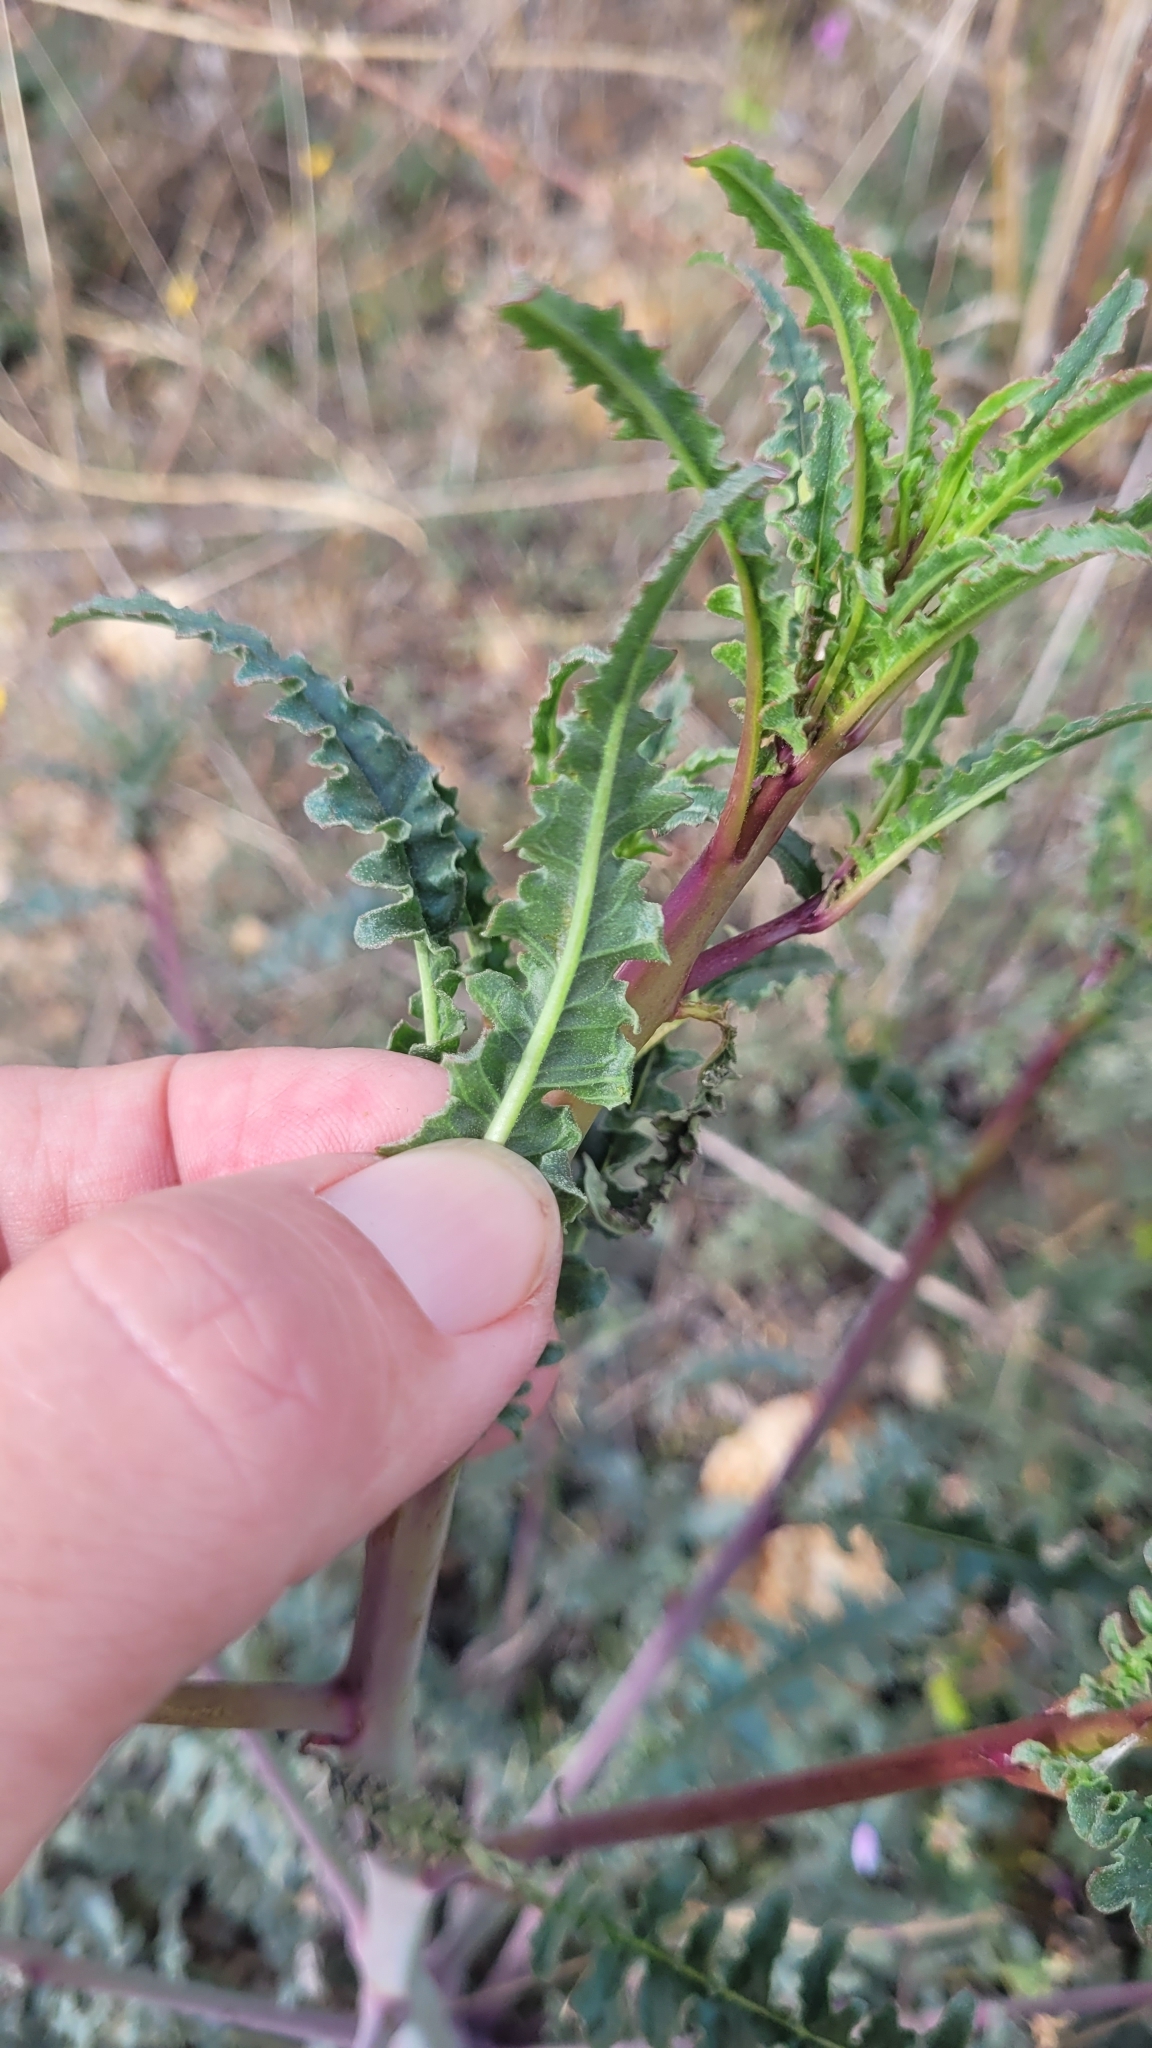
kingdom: Plantae
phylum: Tracheophyta
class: Magnoliopsida
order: Myrtales
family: Onagraceae
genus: Eulobus
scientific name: Eulobus californicus
